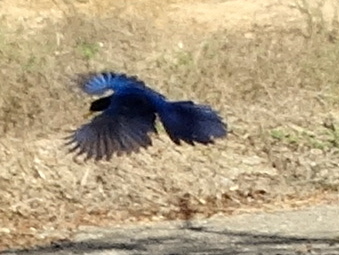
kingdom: Animalia
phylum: Chordata
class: Aves
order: Passeriformes
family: Corvidae
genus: Cyanocorax
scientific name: Cyanocorax beecheii
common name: Purplish-backed jay
